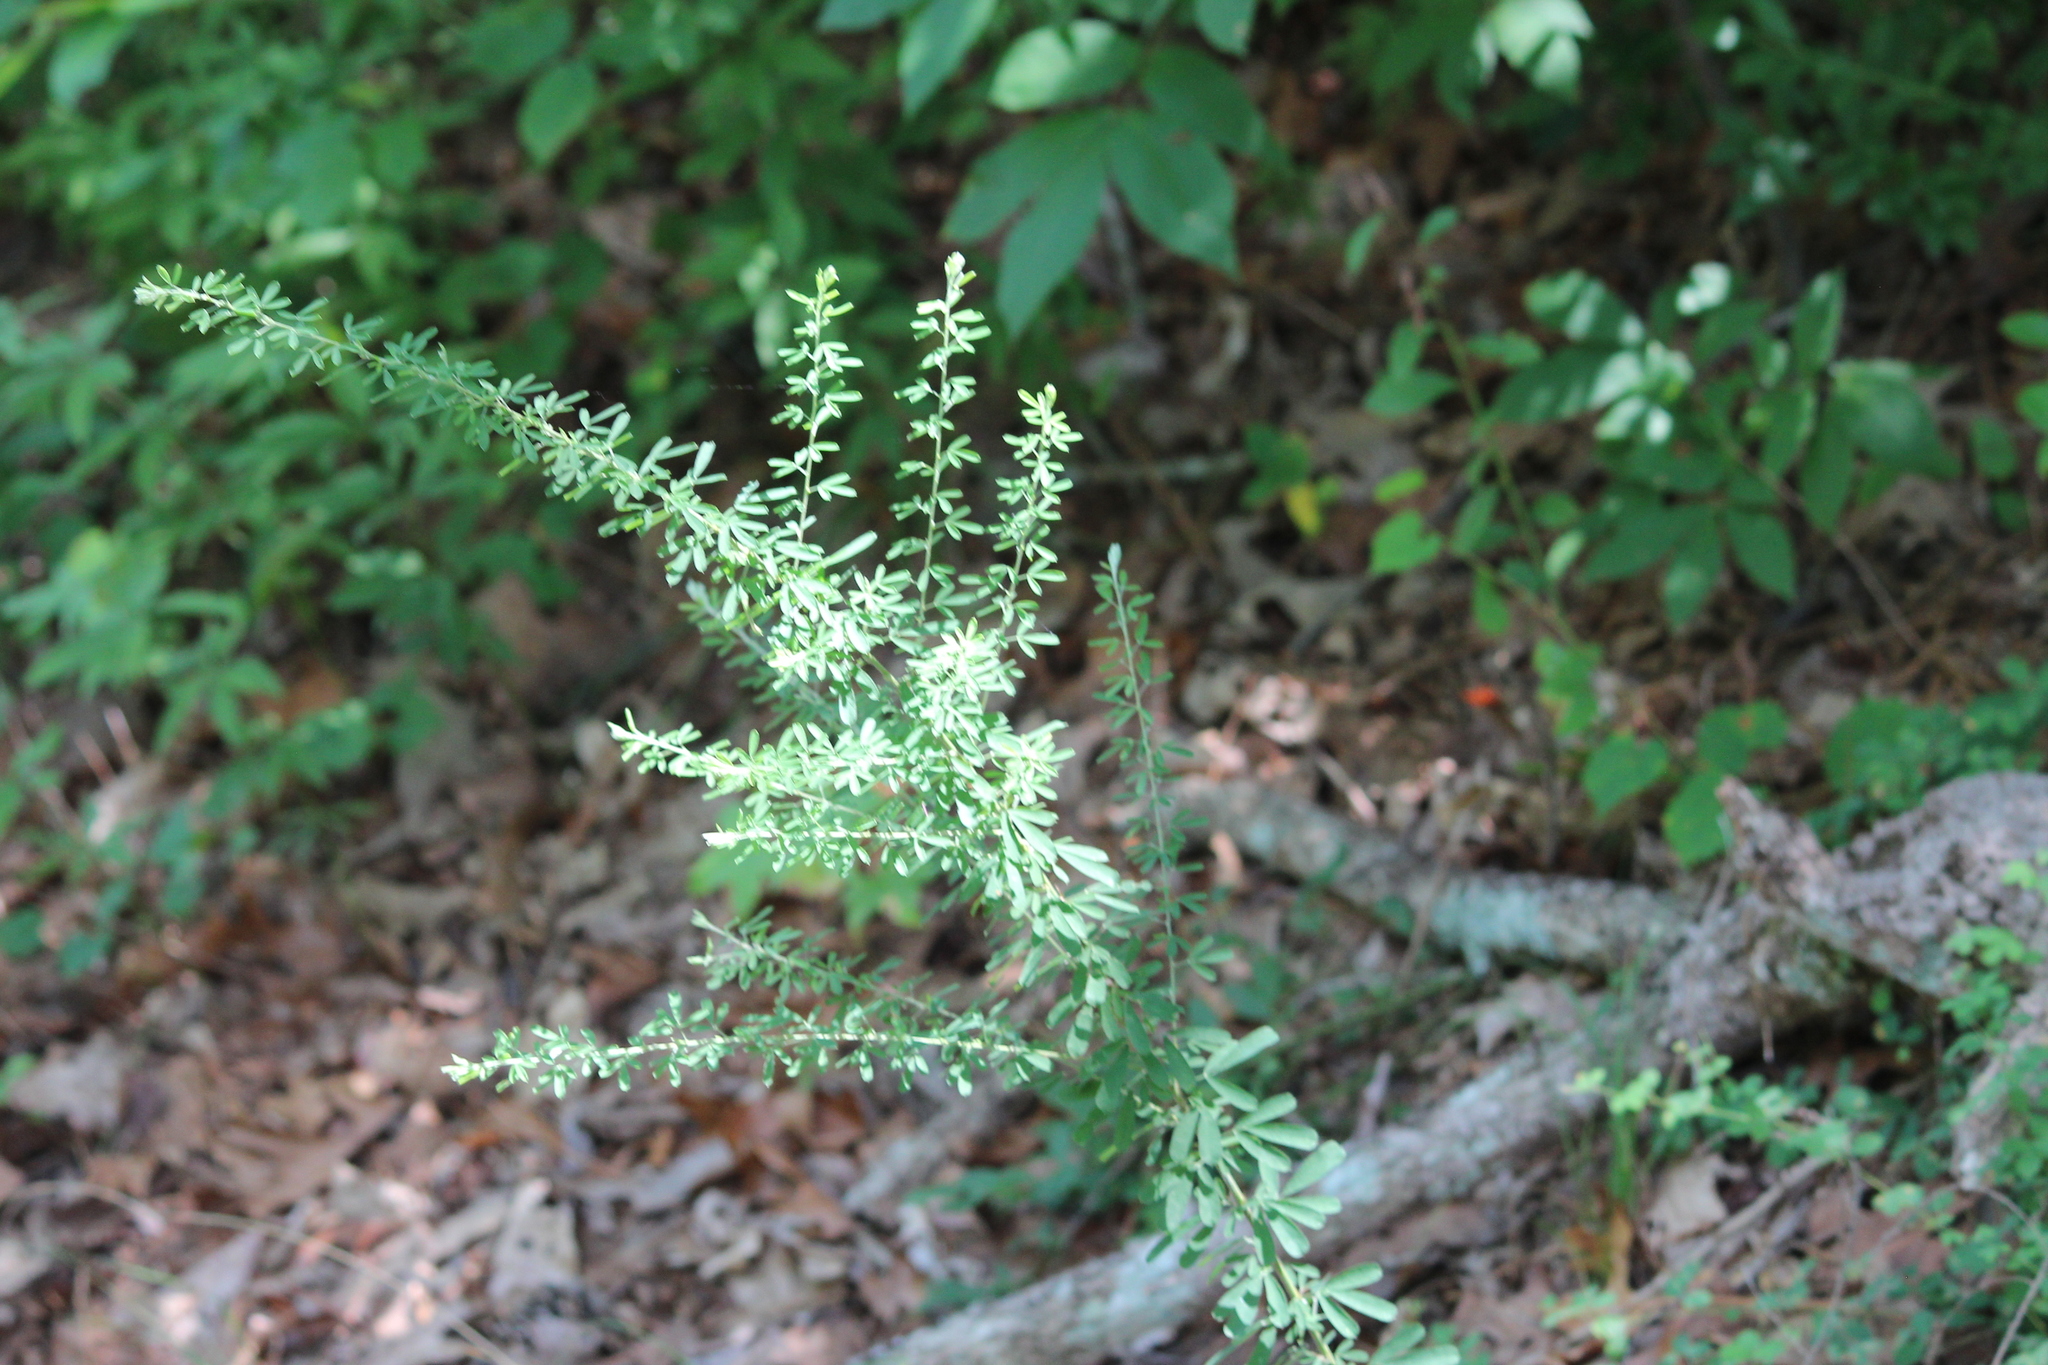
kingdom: Plantae
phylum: Tracheophyta
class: Magnoliopsida
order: Fabales
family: Fabaceae
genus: Lespedeza
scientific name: Lespedeza cuneata
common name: Chinese bush-clover
